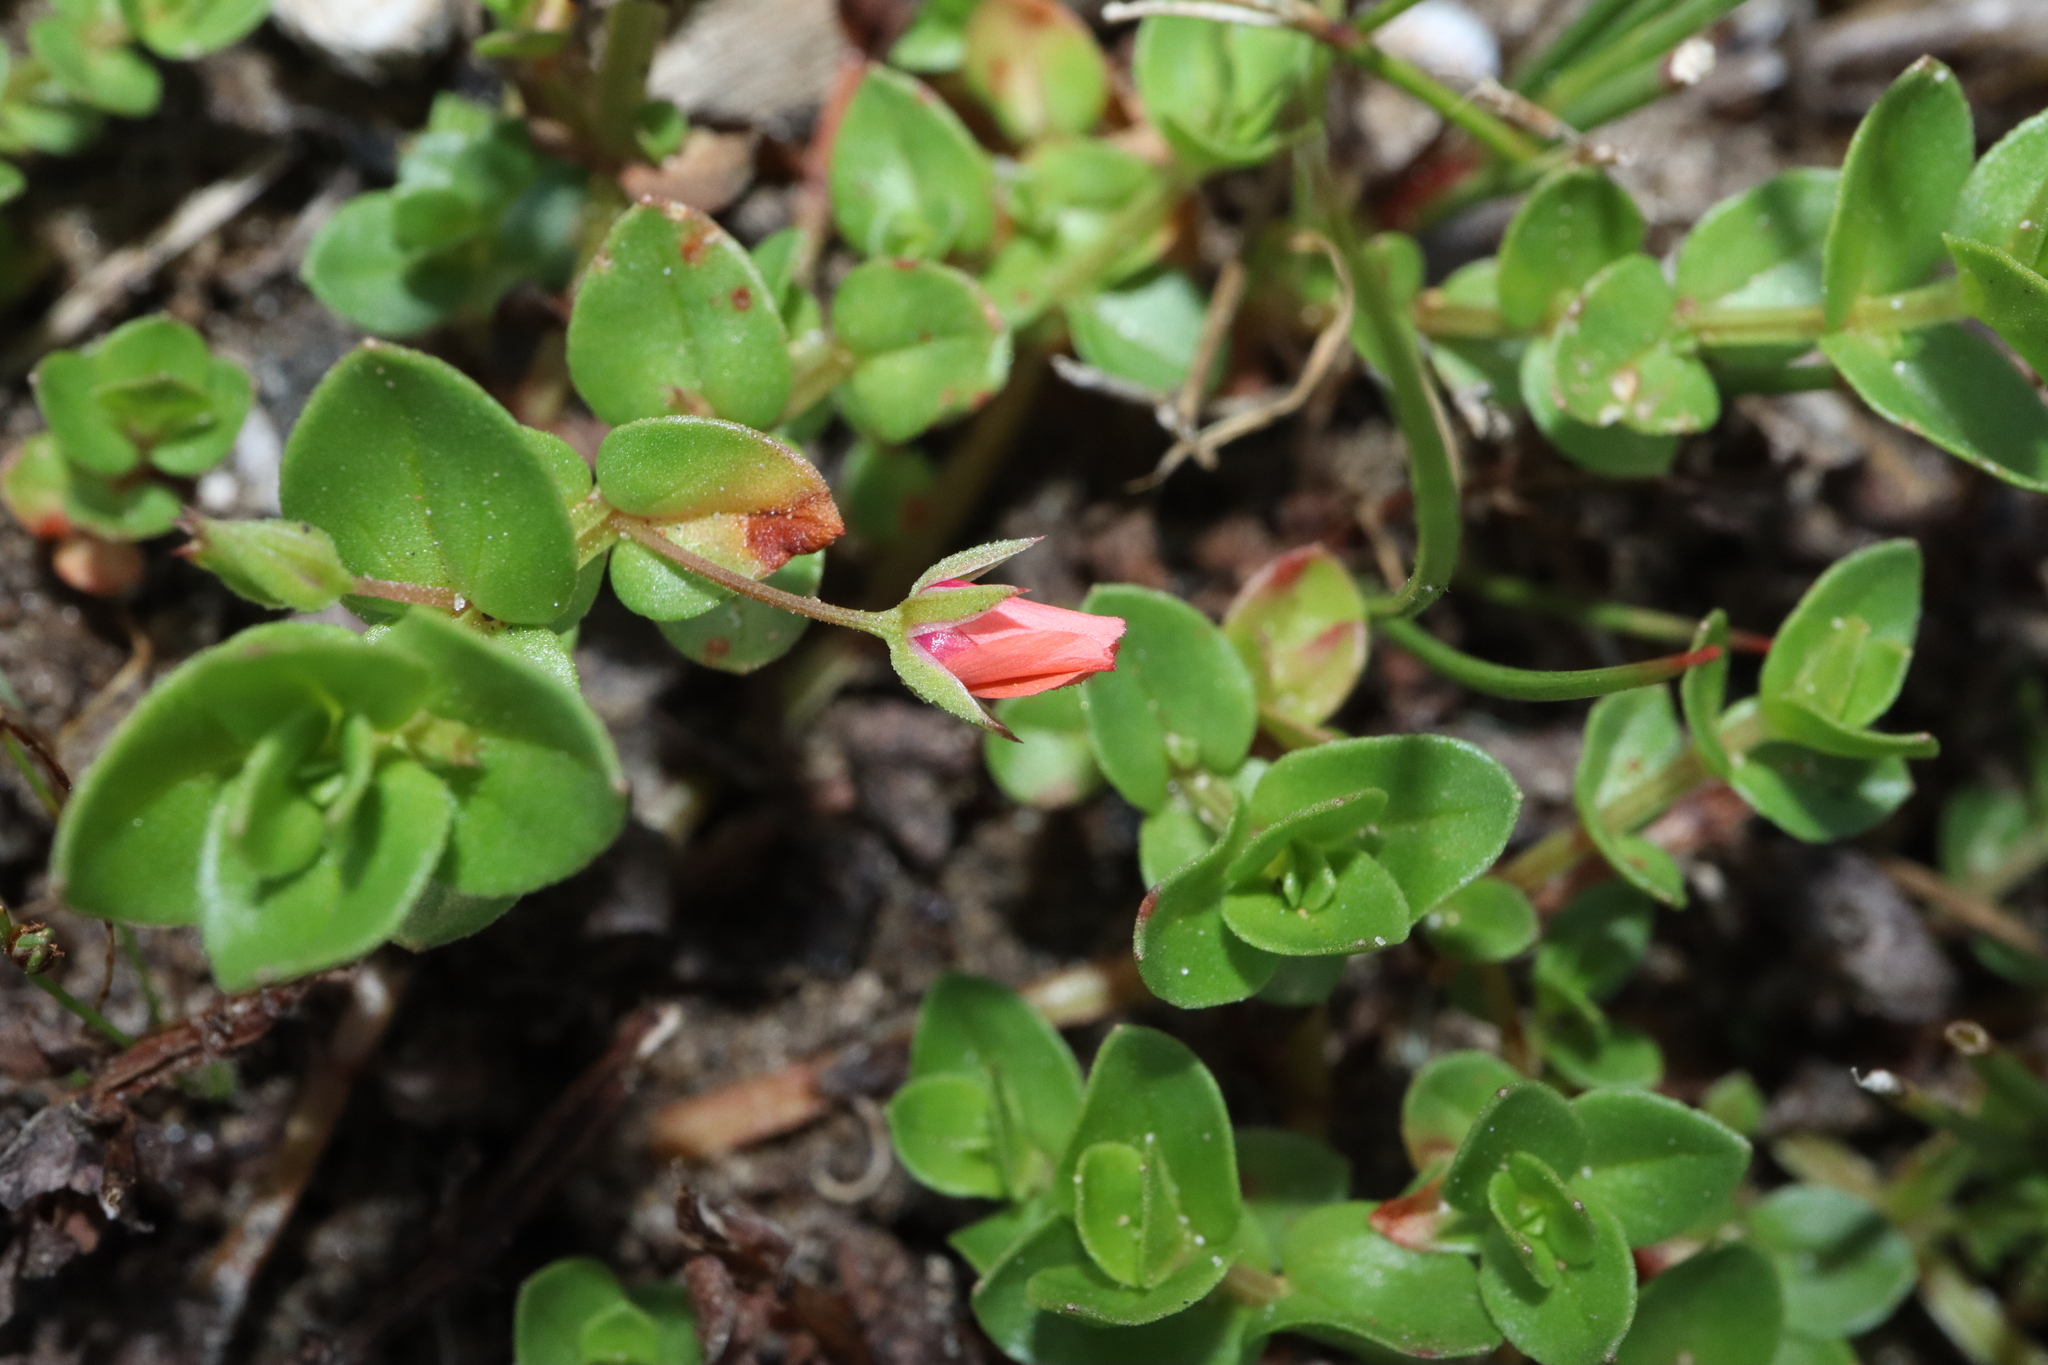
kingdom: Plantae
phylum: Tracheophyta
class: Magnoliopsida
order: Ericales
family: Primulaceae
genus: Lysimachia
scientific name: Lysimachia arvensis
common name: Scarlet pimpernel
